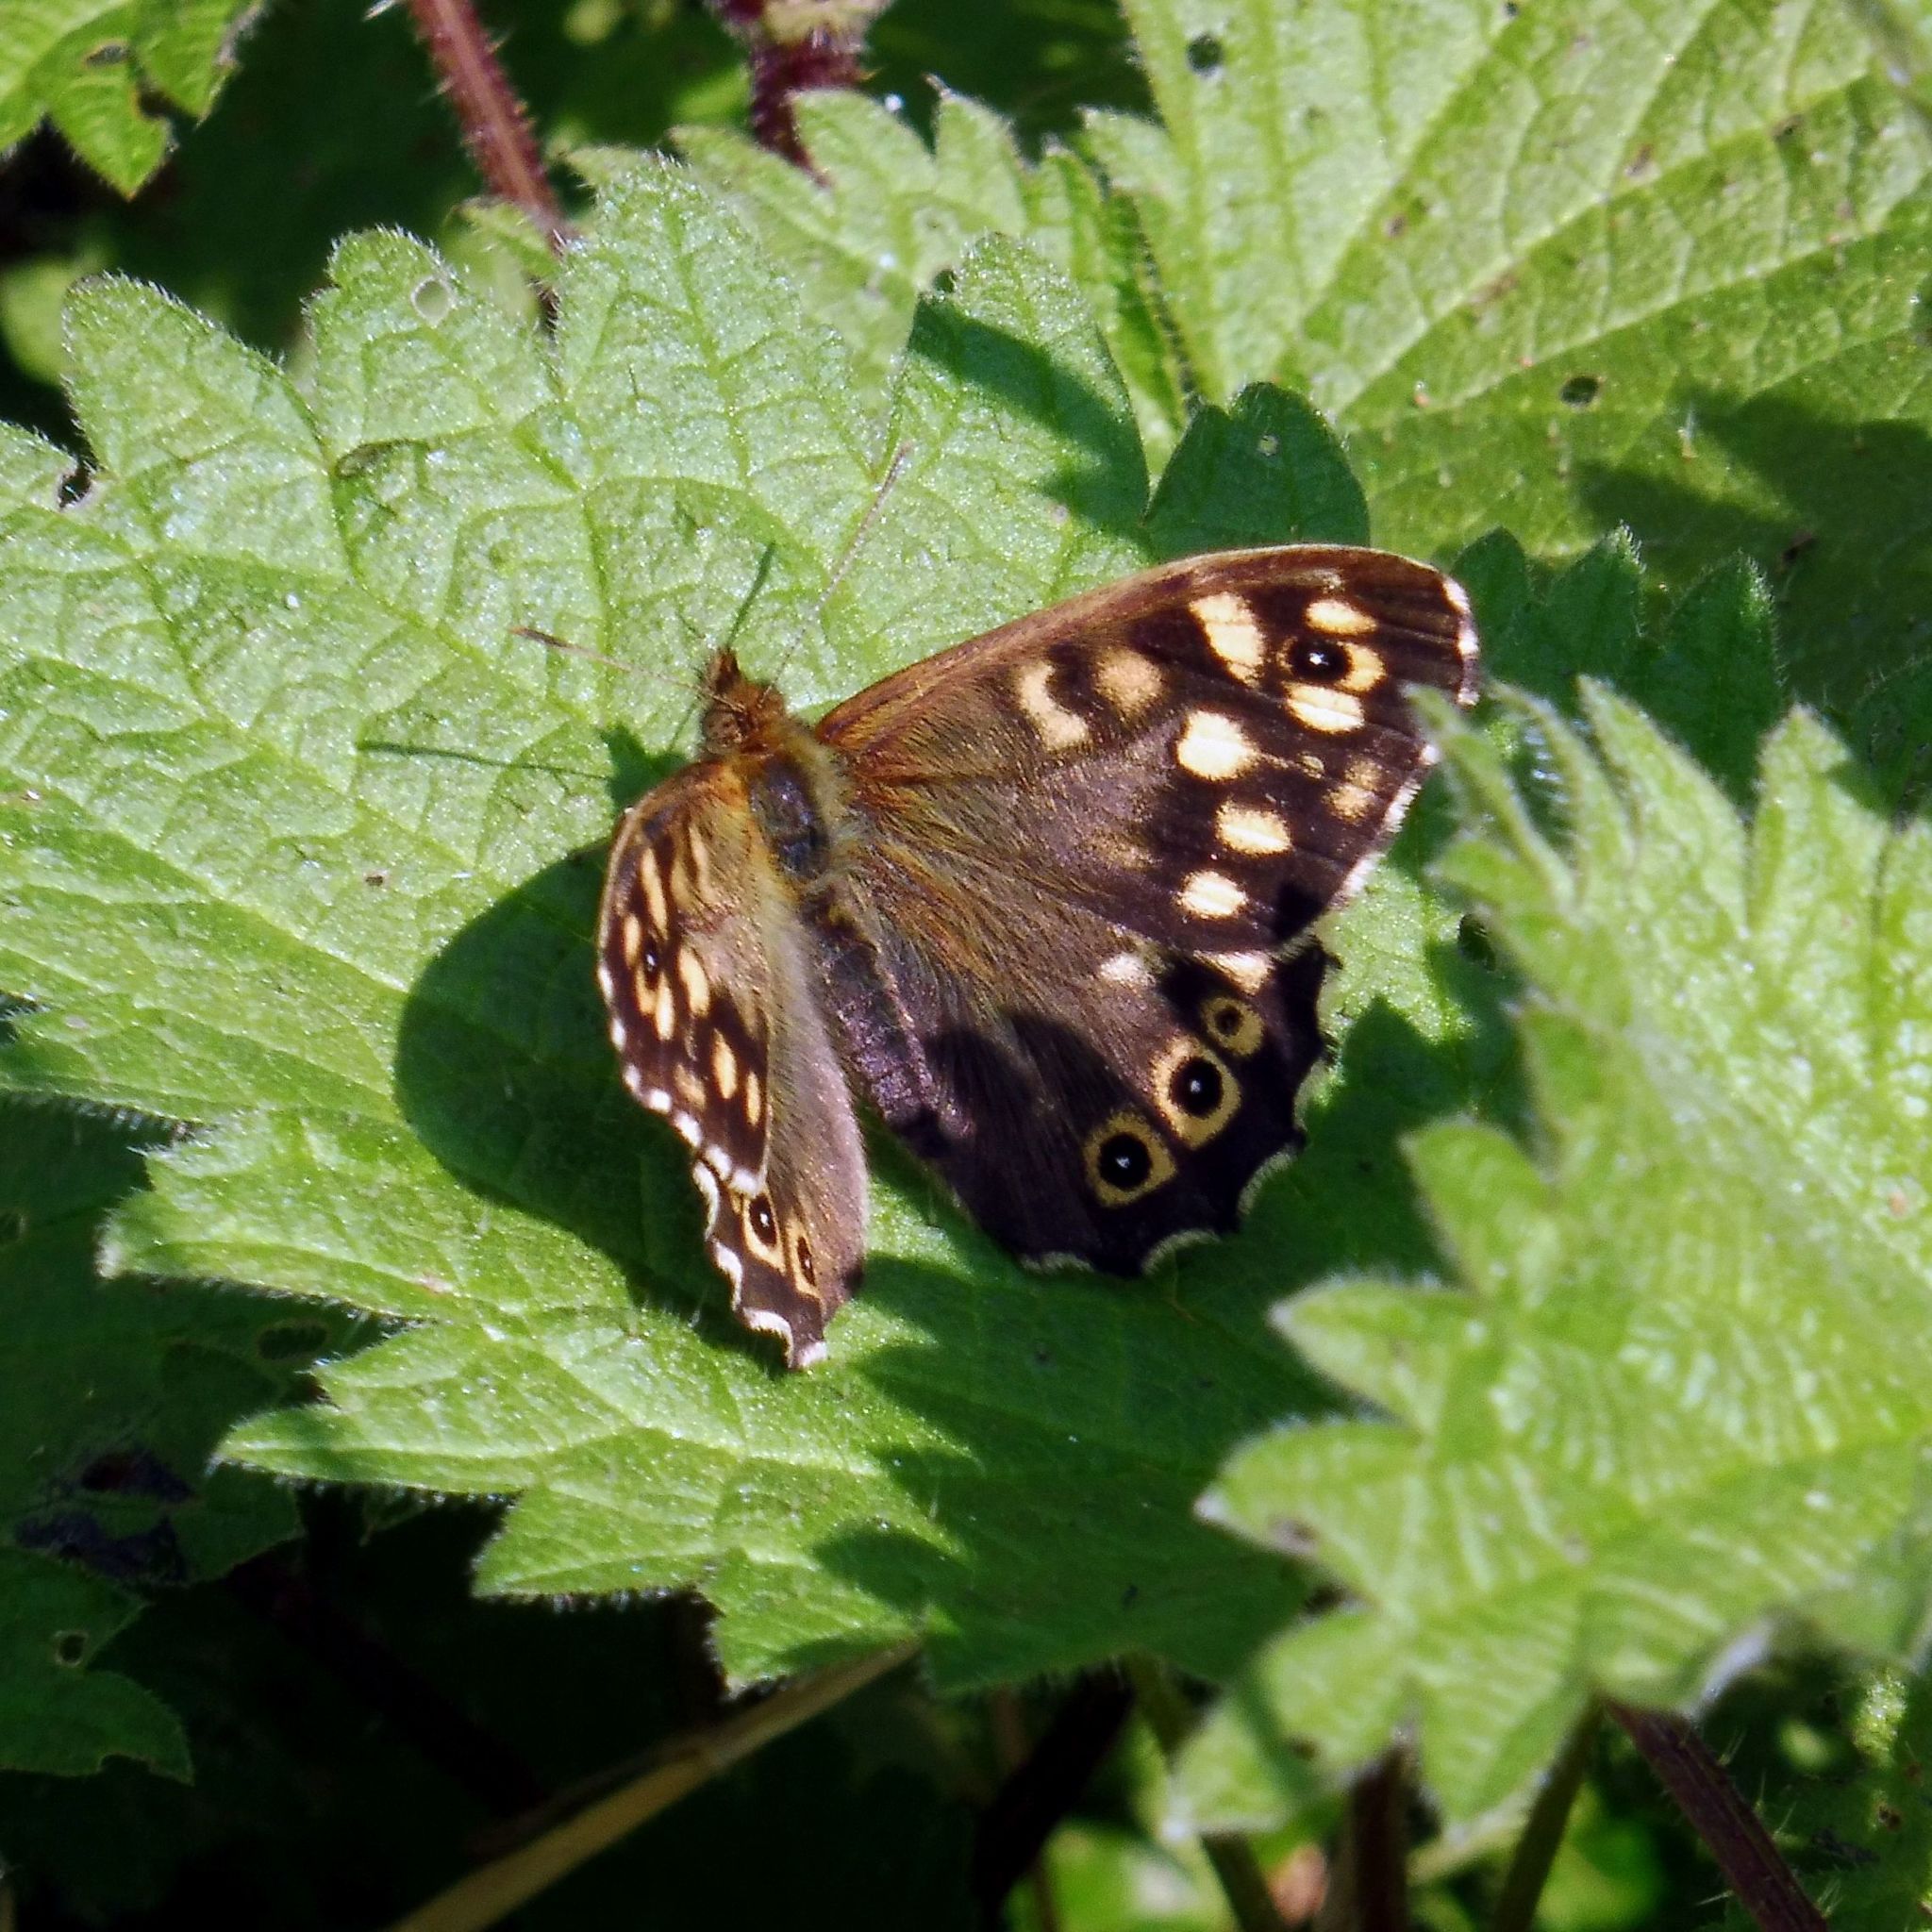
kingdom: Animalia
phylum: Arthropoda
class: Insecta
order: Lepidoptera
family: Nymphalidae
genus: Pararge
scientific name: Pararge aegeria
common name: Speckled wood
